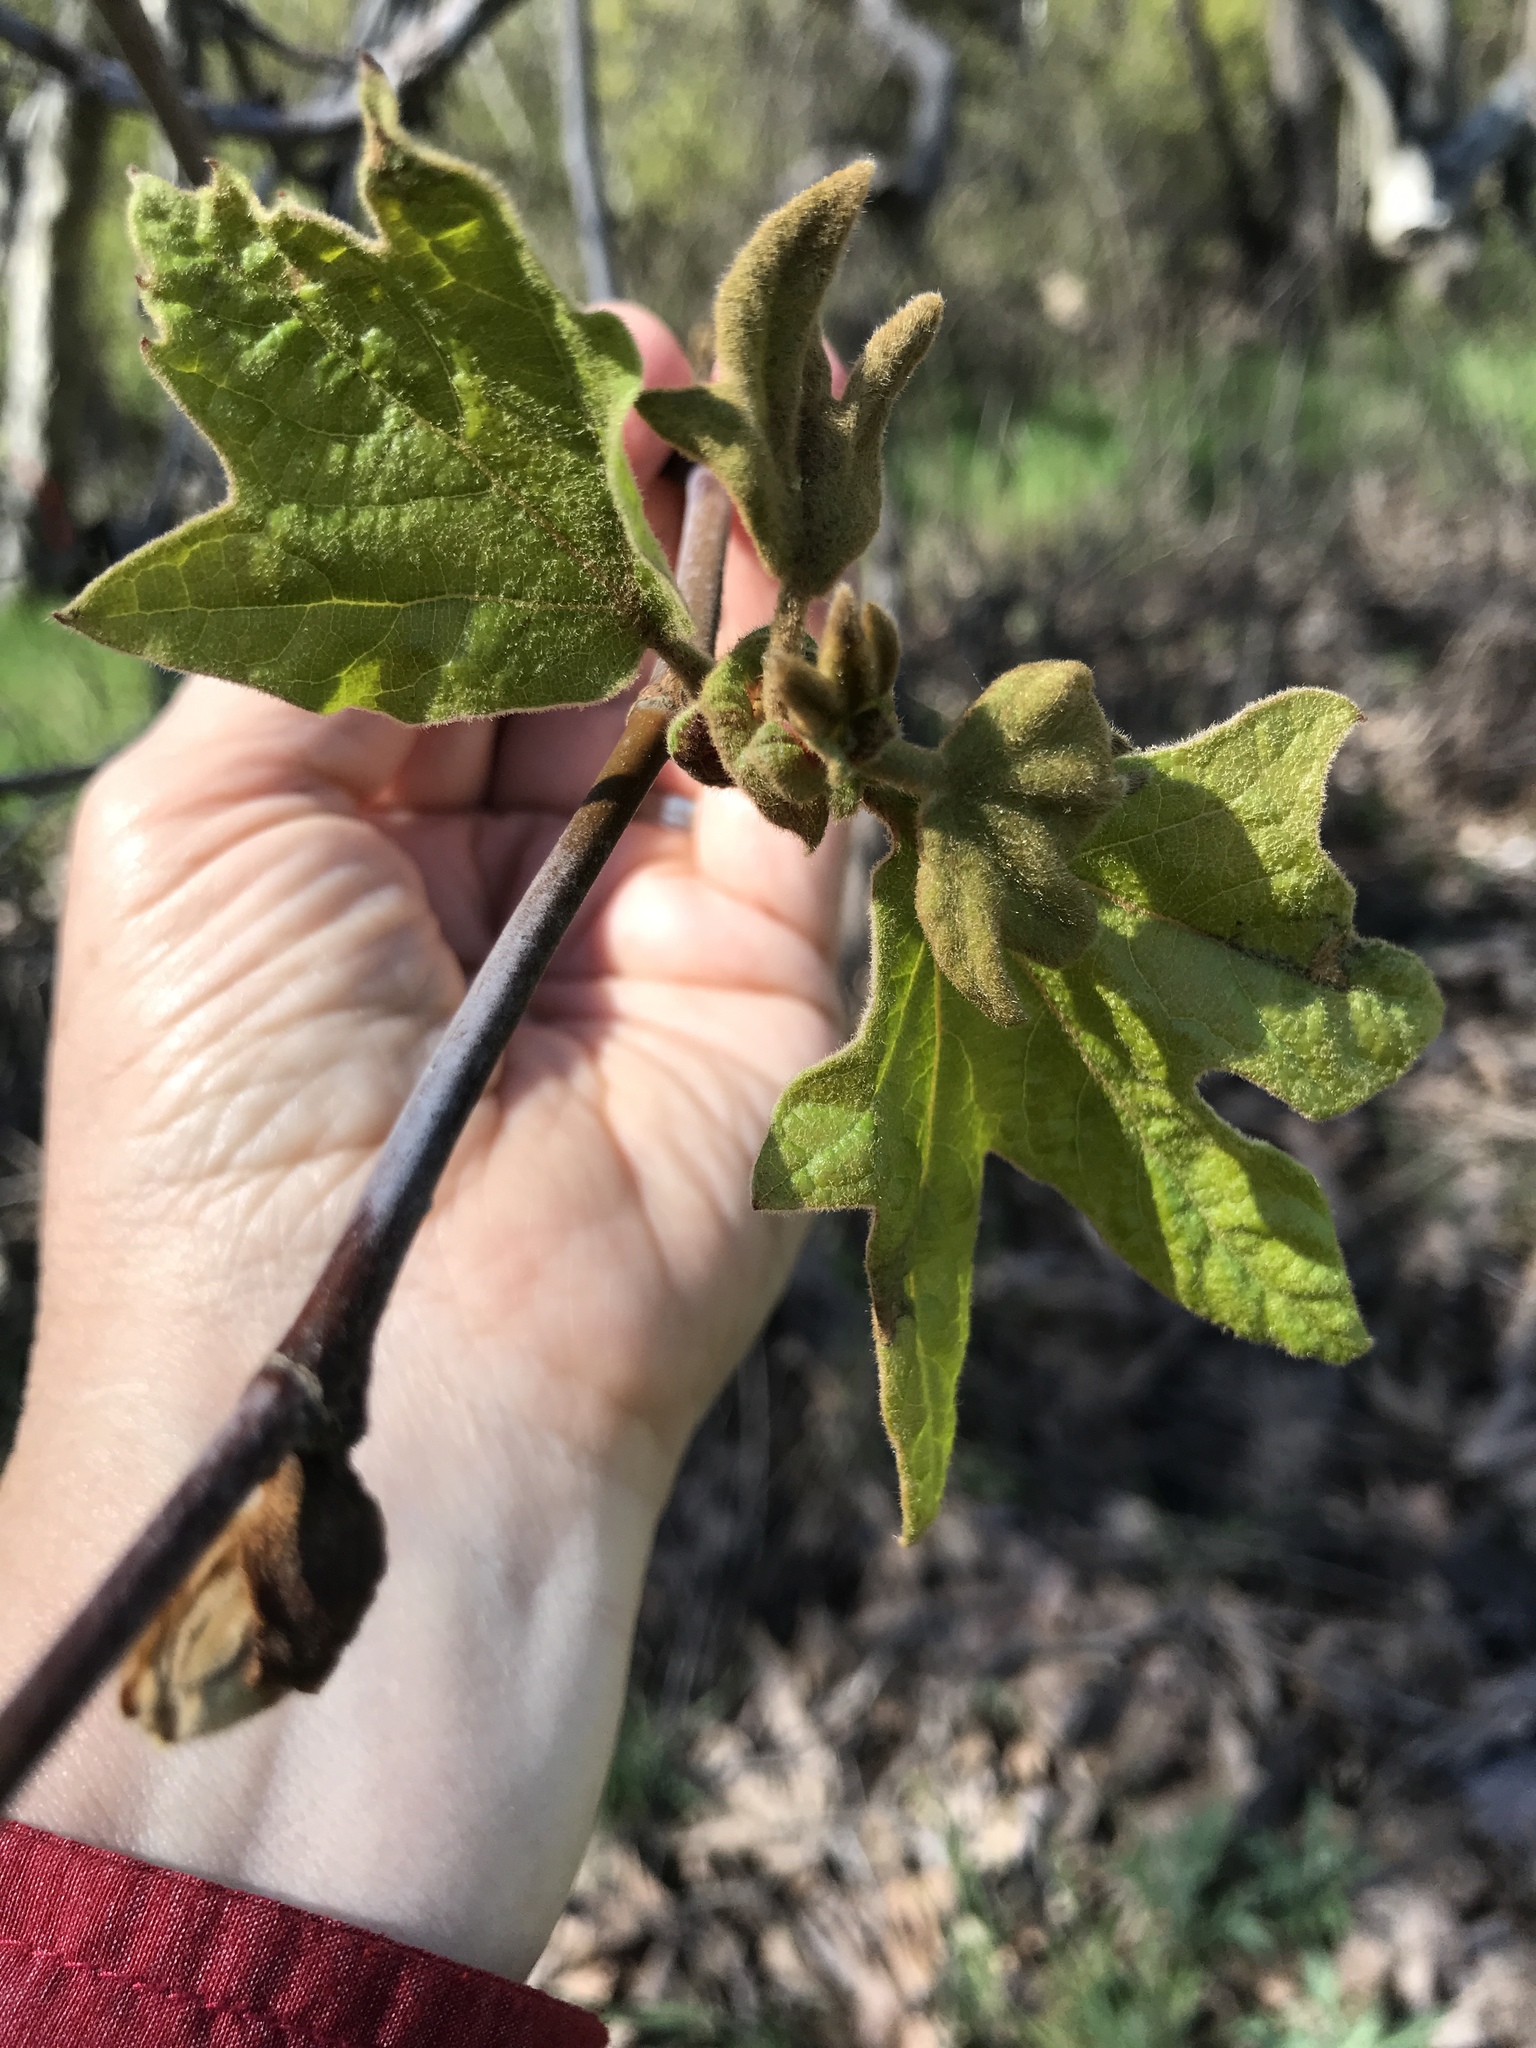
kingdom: Plantae
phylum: Tracheophyta
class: Magnoliopsida
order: Proteales
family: Platanaceae
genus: Platanus
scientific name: Platanus racemosa
